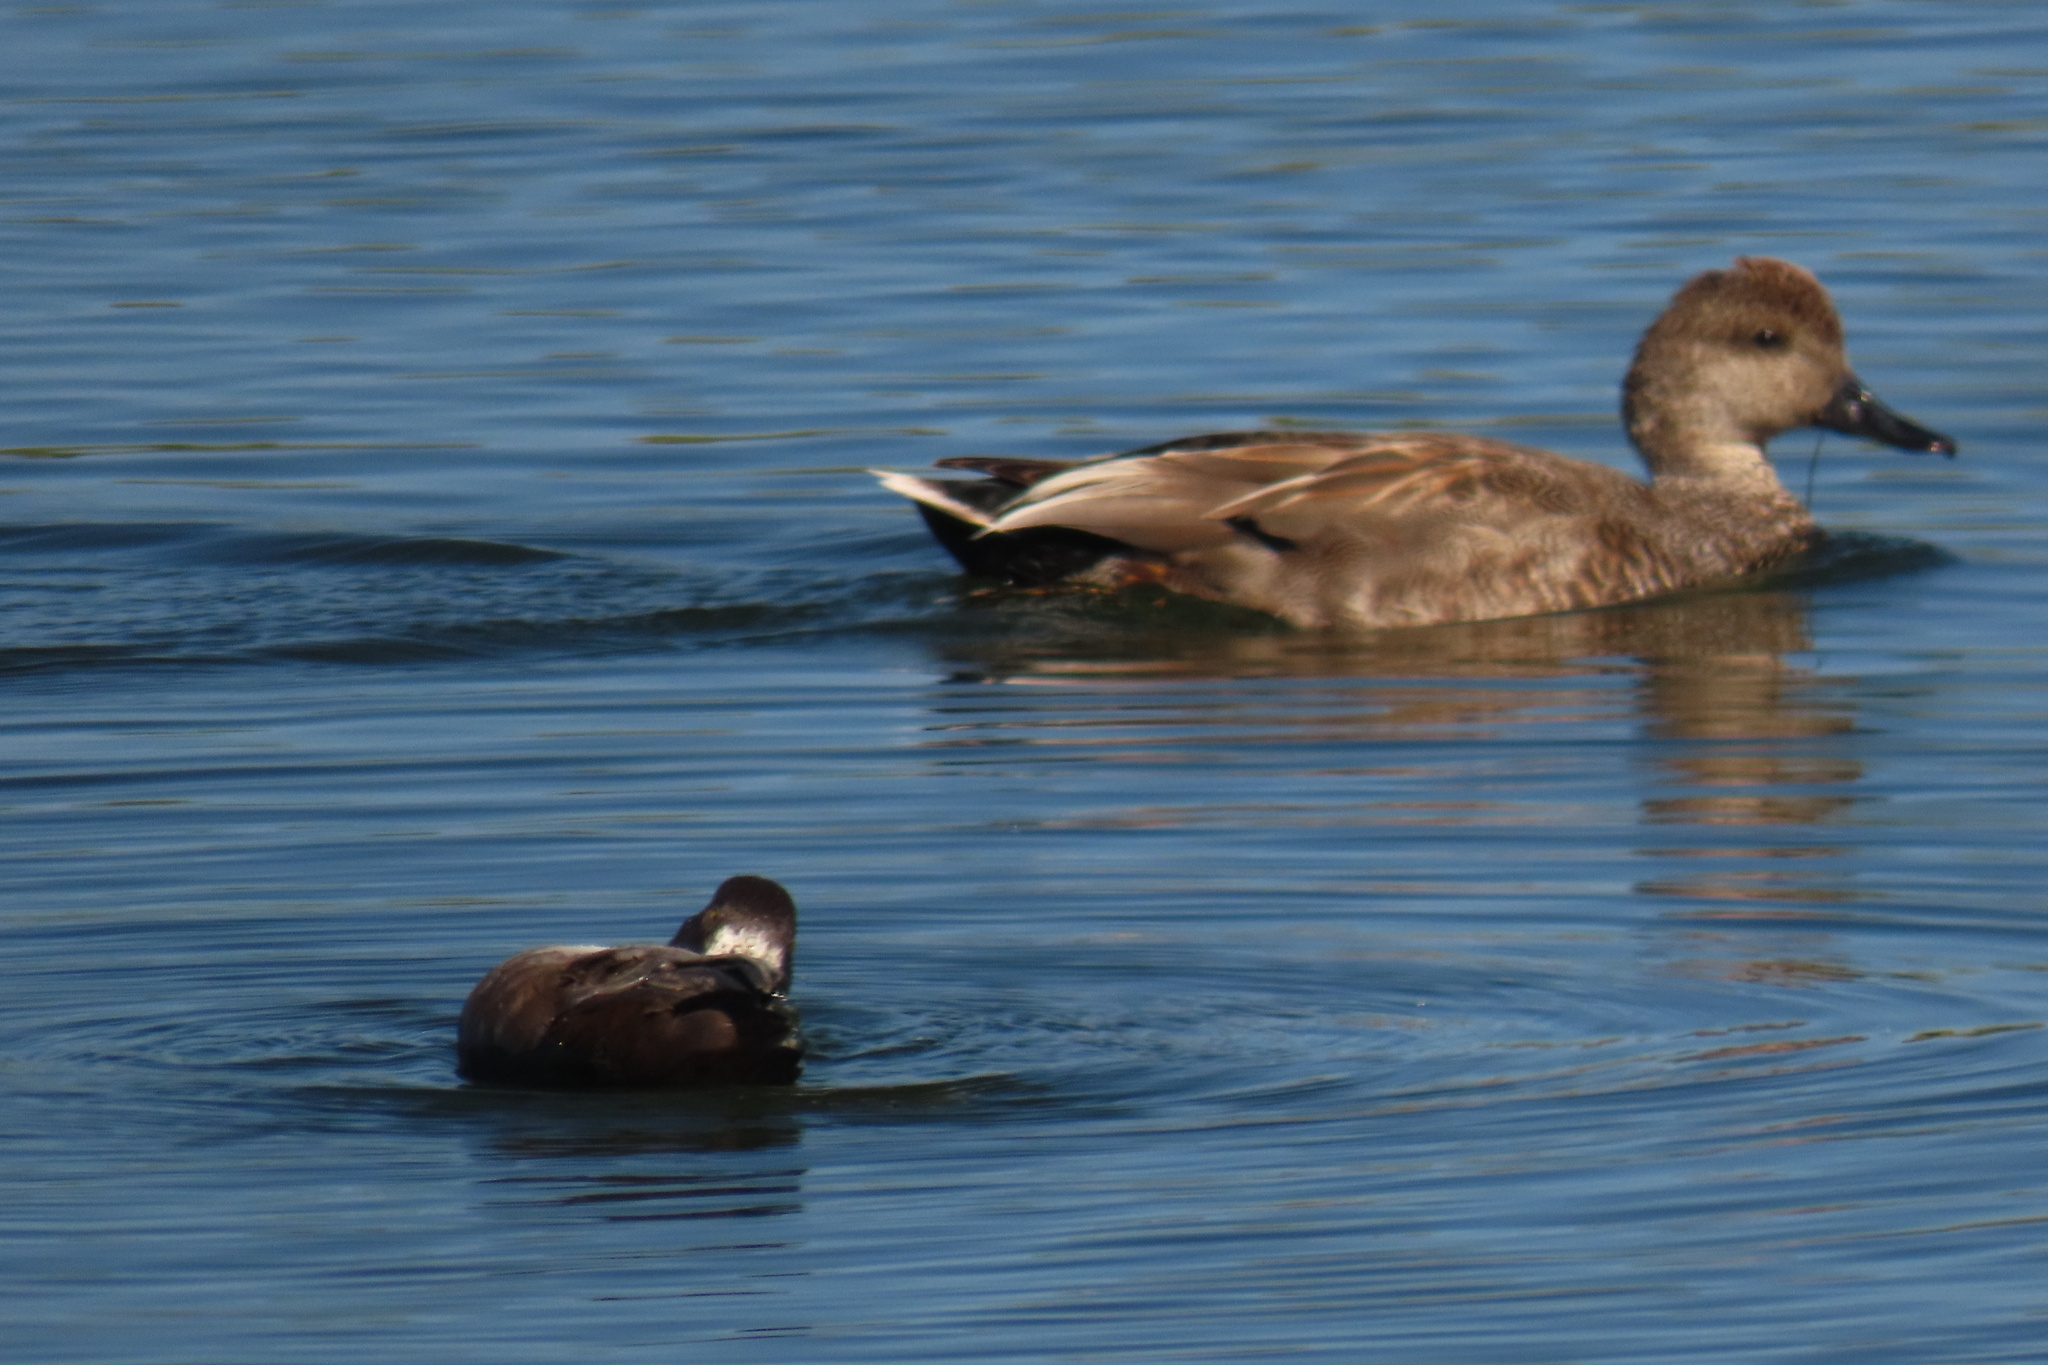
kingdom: Animalia
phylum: Chordata
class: Aves
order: Anseriformes
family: Anatidae
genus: Mareca
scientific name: Mareca strepera
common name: Gadwall
